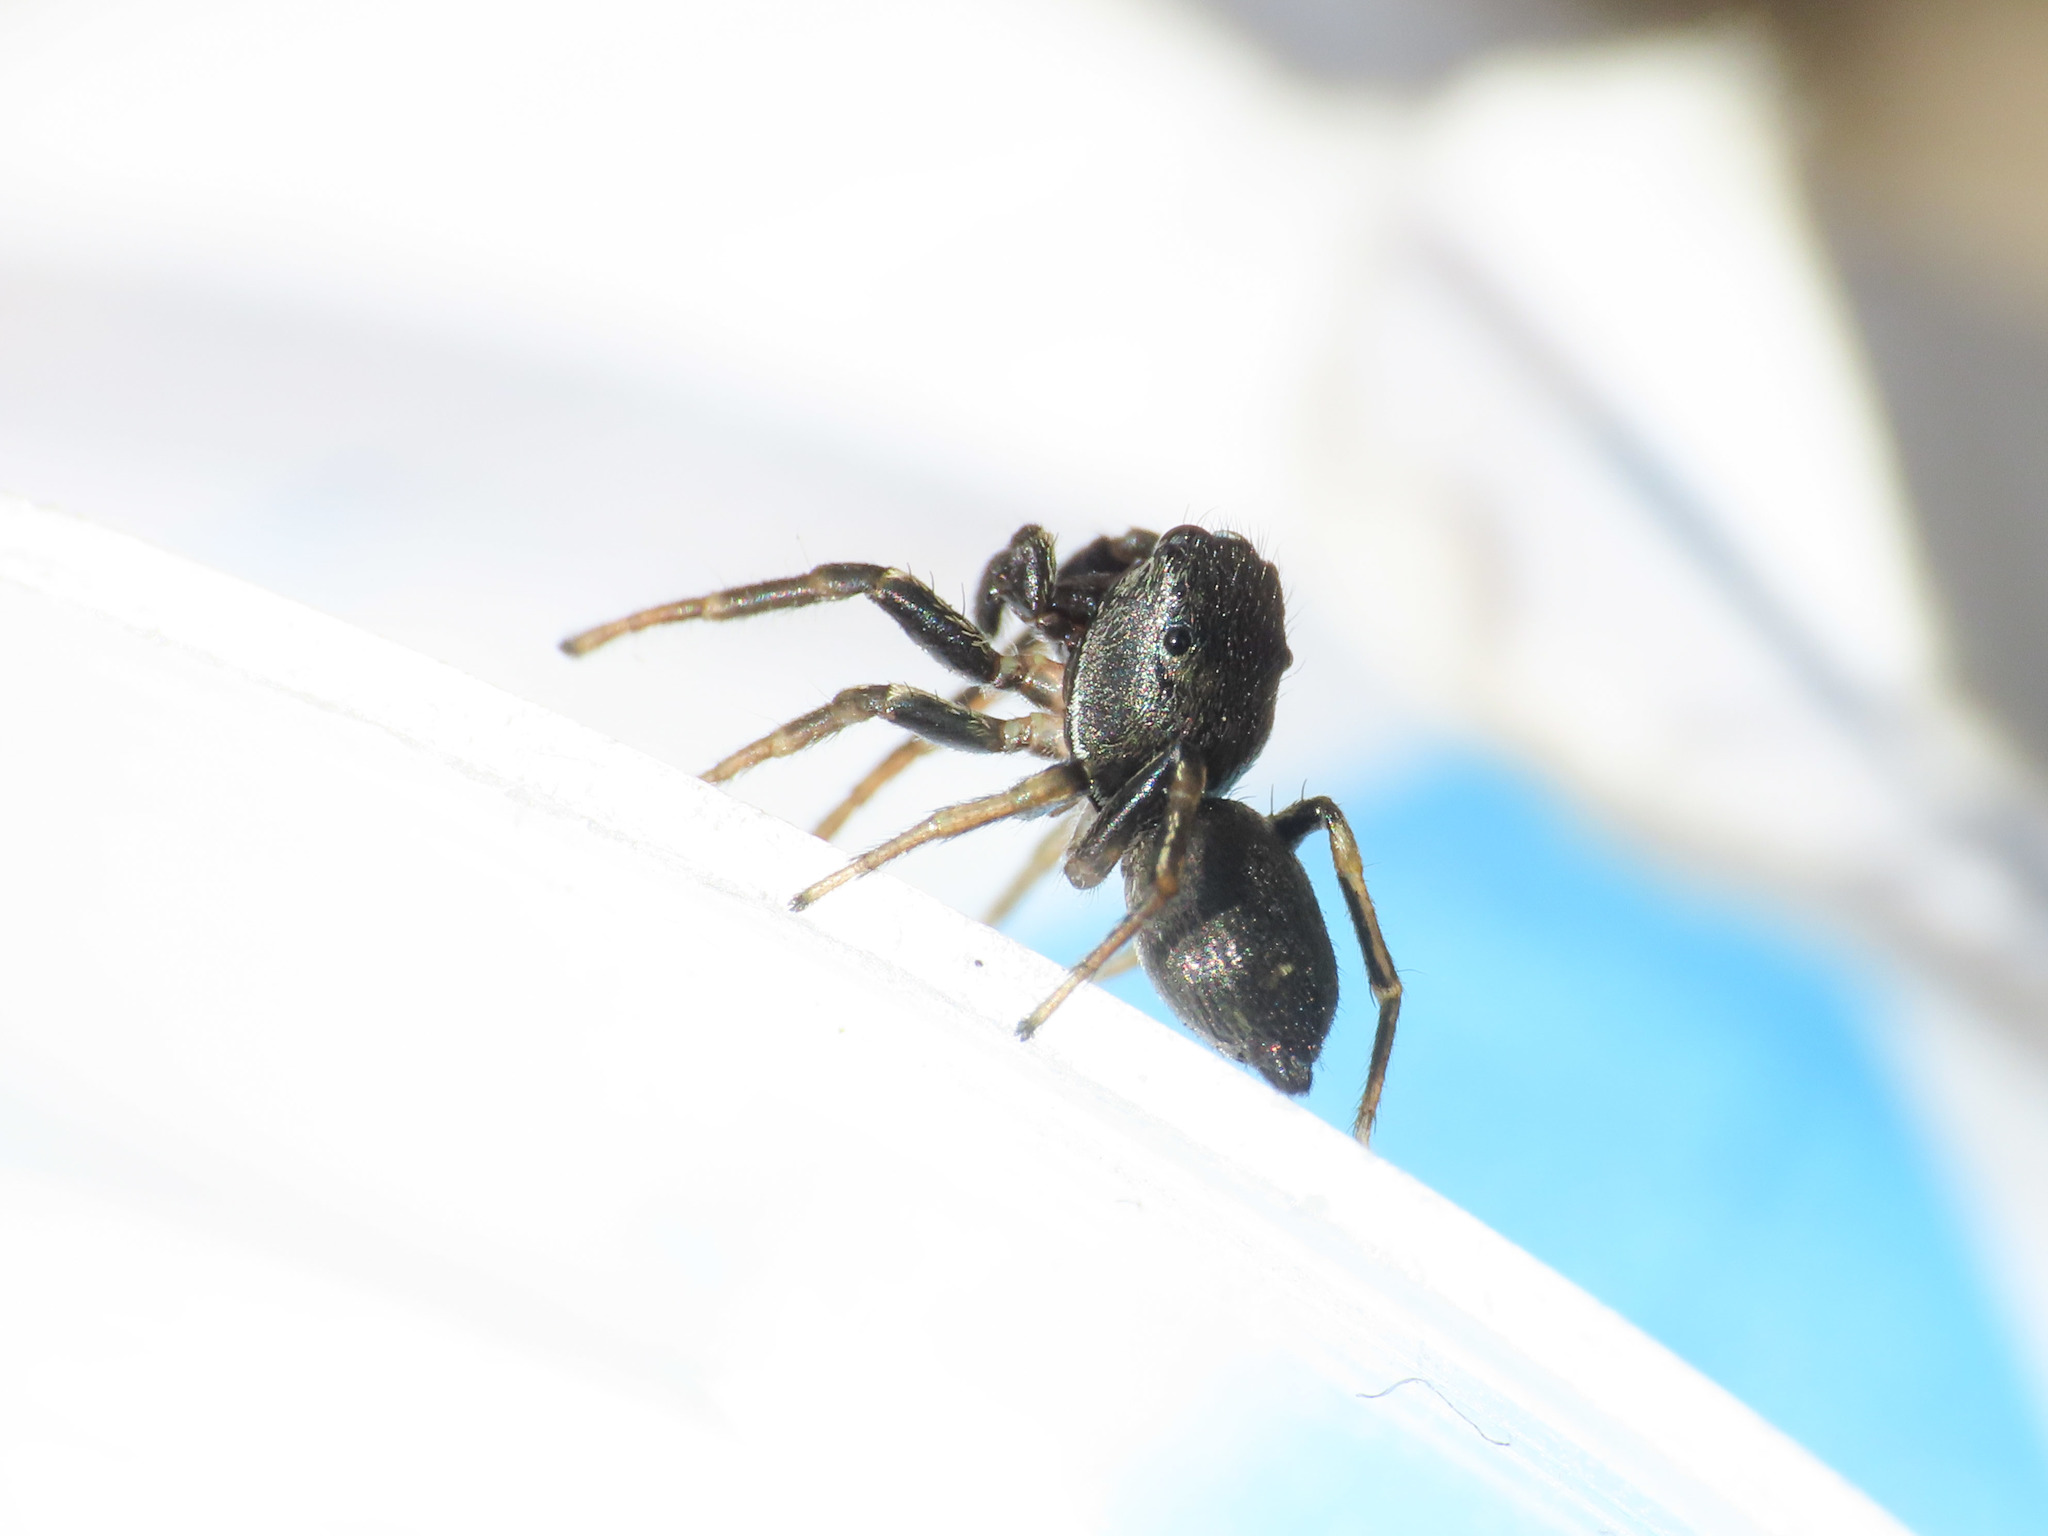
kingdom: Animalia
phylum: Arthropoda
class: Arachnida
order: Araneae
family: Salticidae
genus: Heliophanus
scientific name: Heliophanus cupreus
